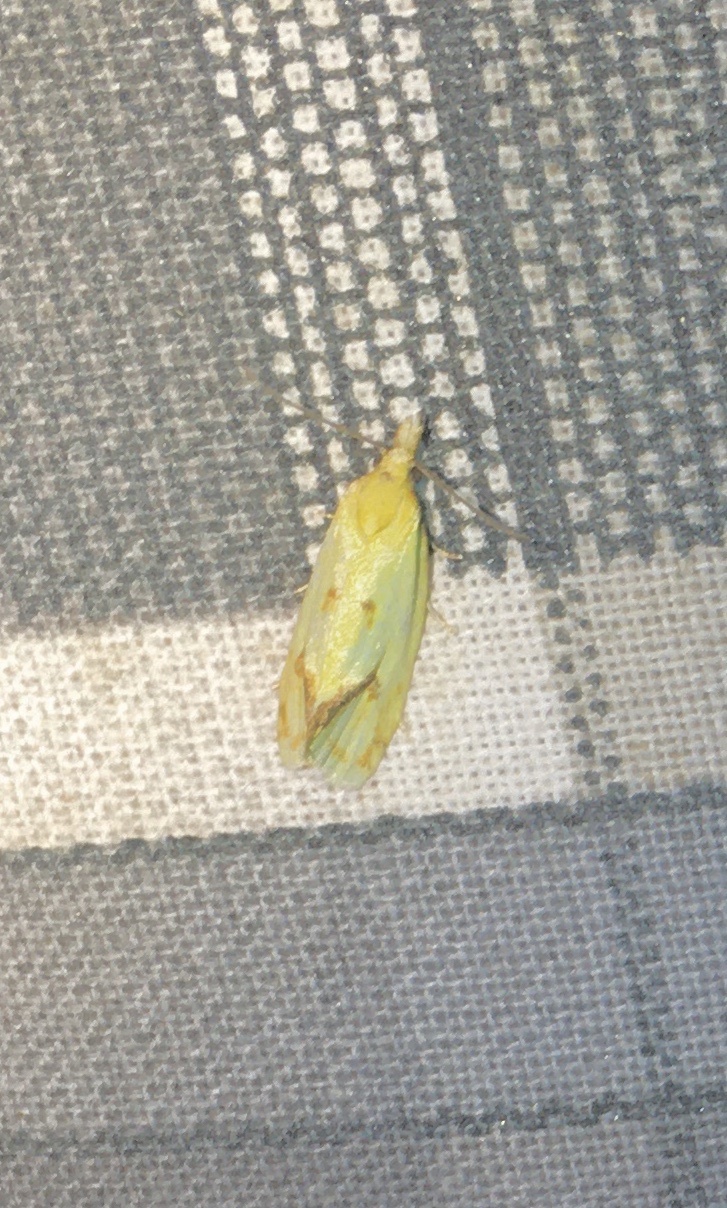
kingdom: Animalia
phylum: Arthropoda
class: Insecta
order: Lepidoptera
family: Tortricidae
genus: Agapeta
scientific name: Agapeta hamana
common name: Common yellow conch
